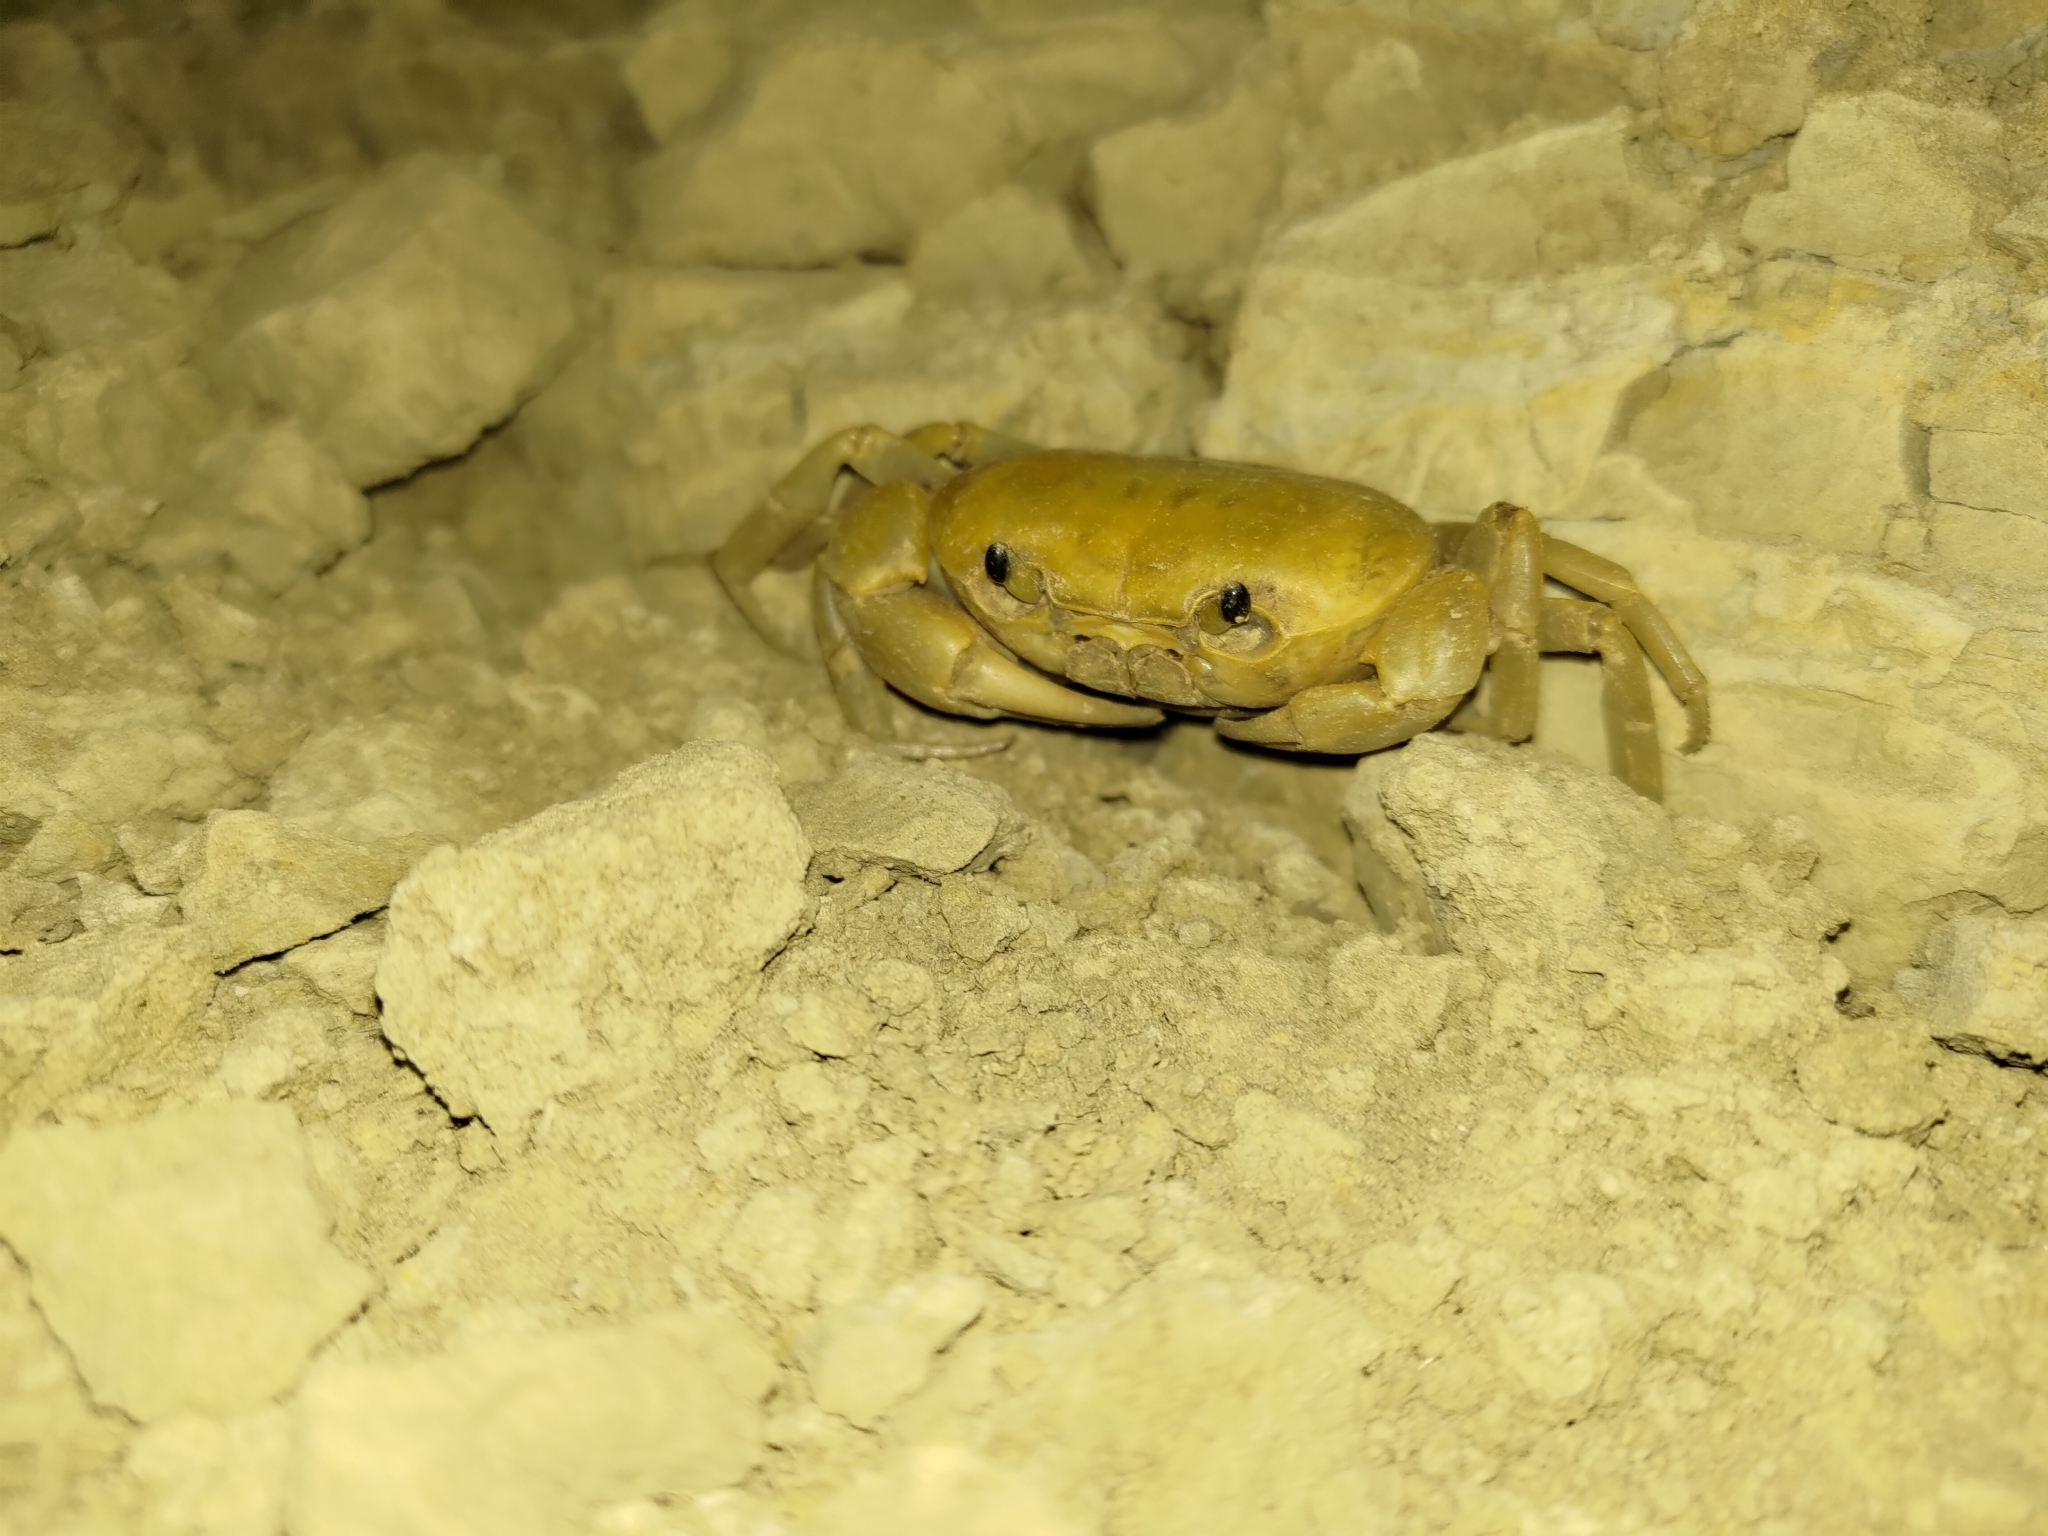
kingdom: Animalia
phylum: Arthropoda
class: Malacostraca
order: Decapoda
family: Potamidae
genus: Geothelphusa
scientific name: Geothelphusa makatao
